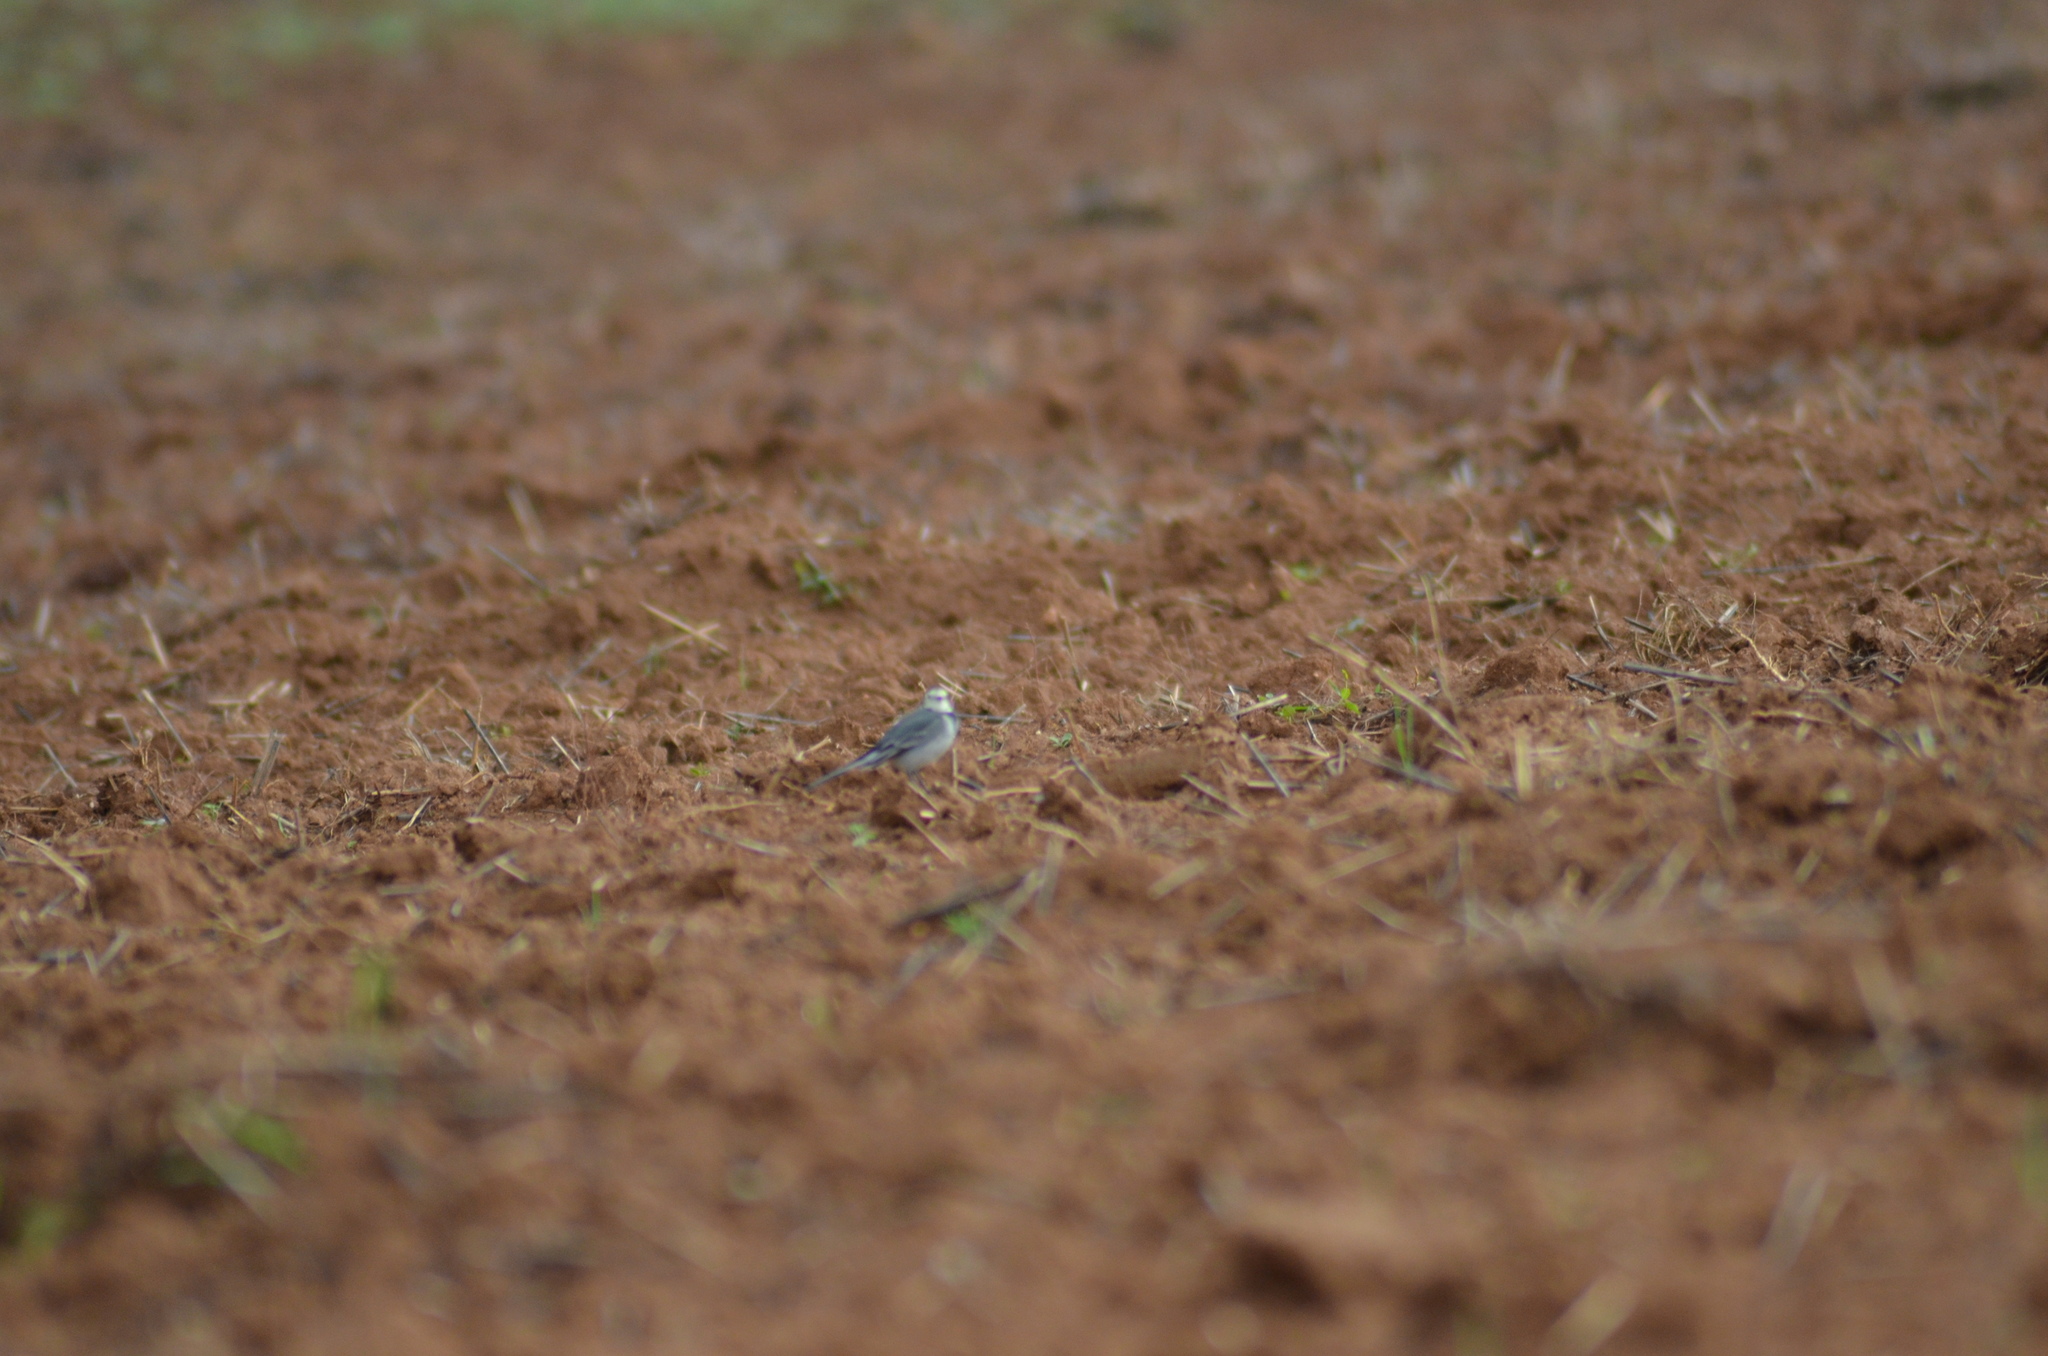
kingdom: Animalia
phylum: Chordata
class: Aves
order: Passeriformes
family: Motacillidae
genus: Motacilla
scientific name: Motacilla alba
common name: White wagtail
